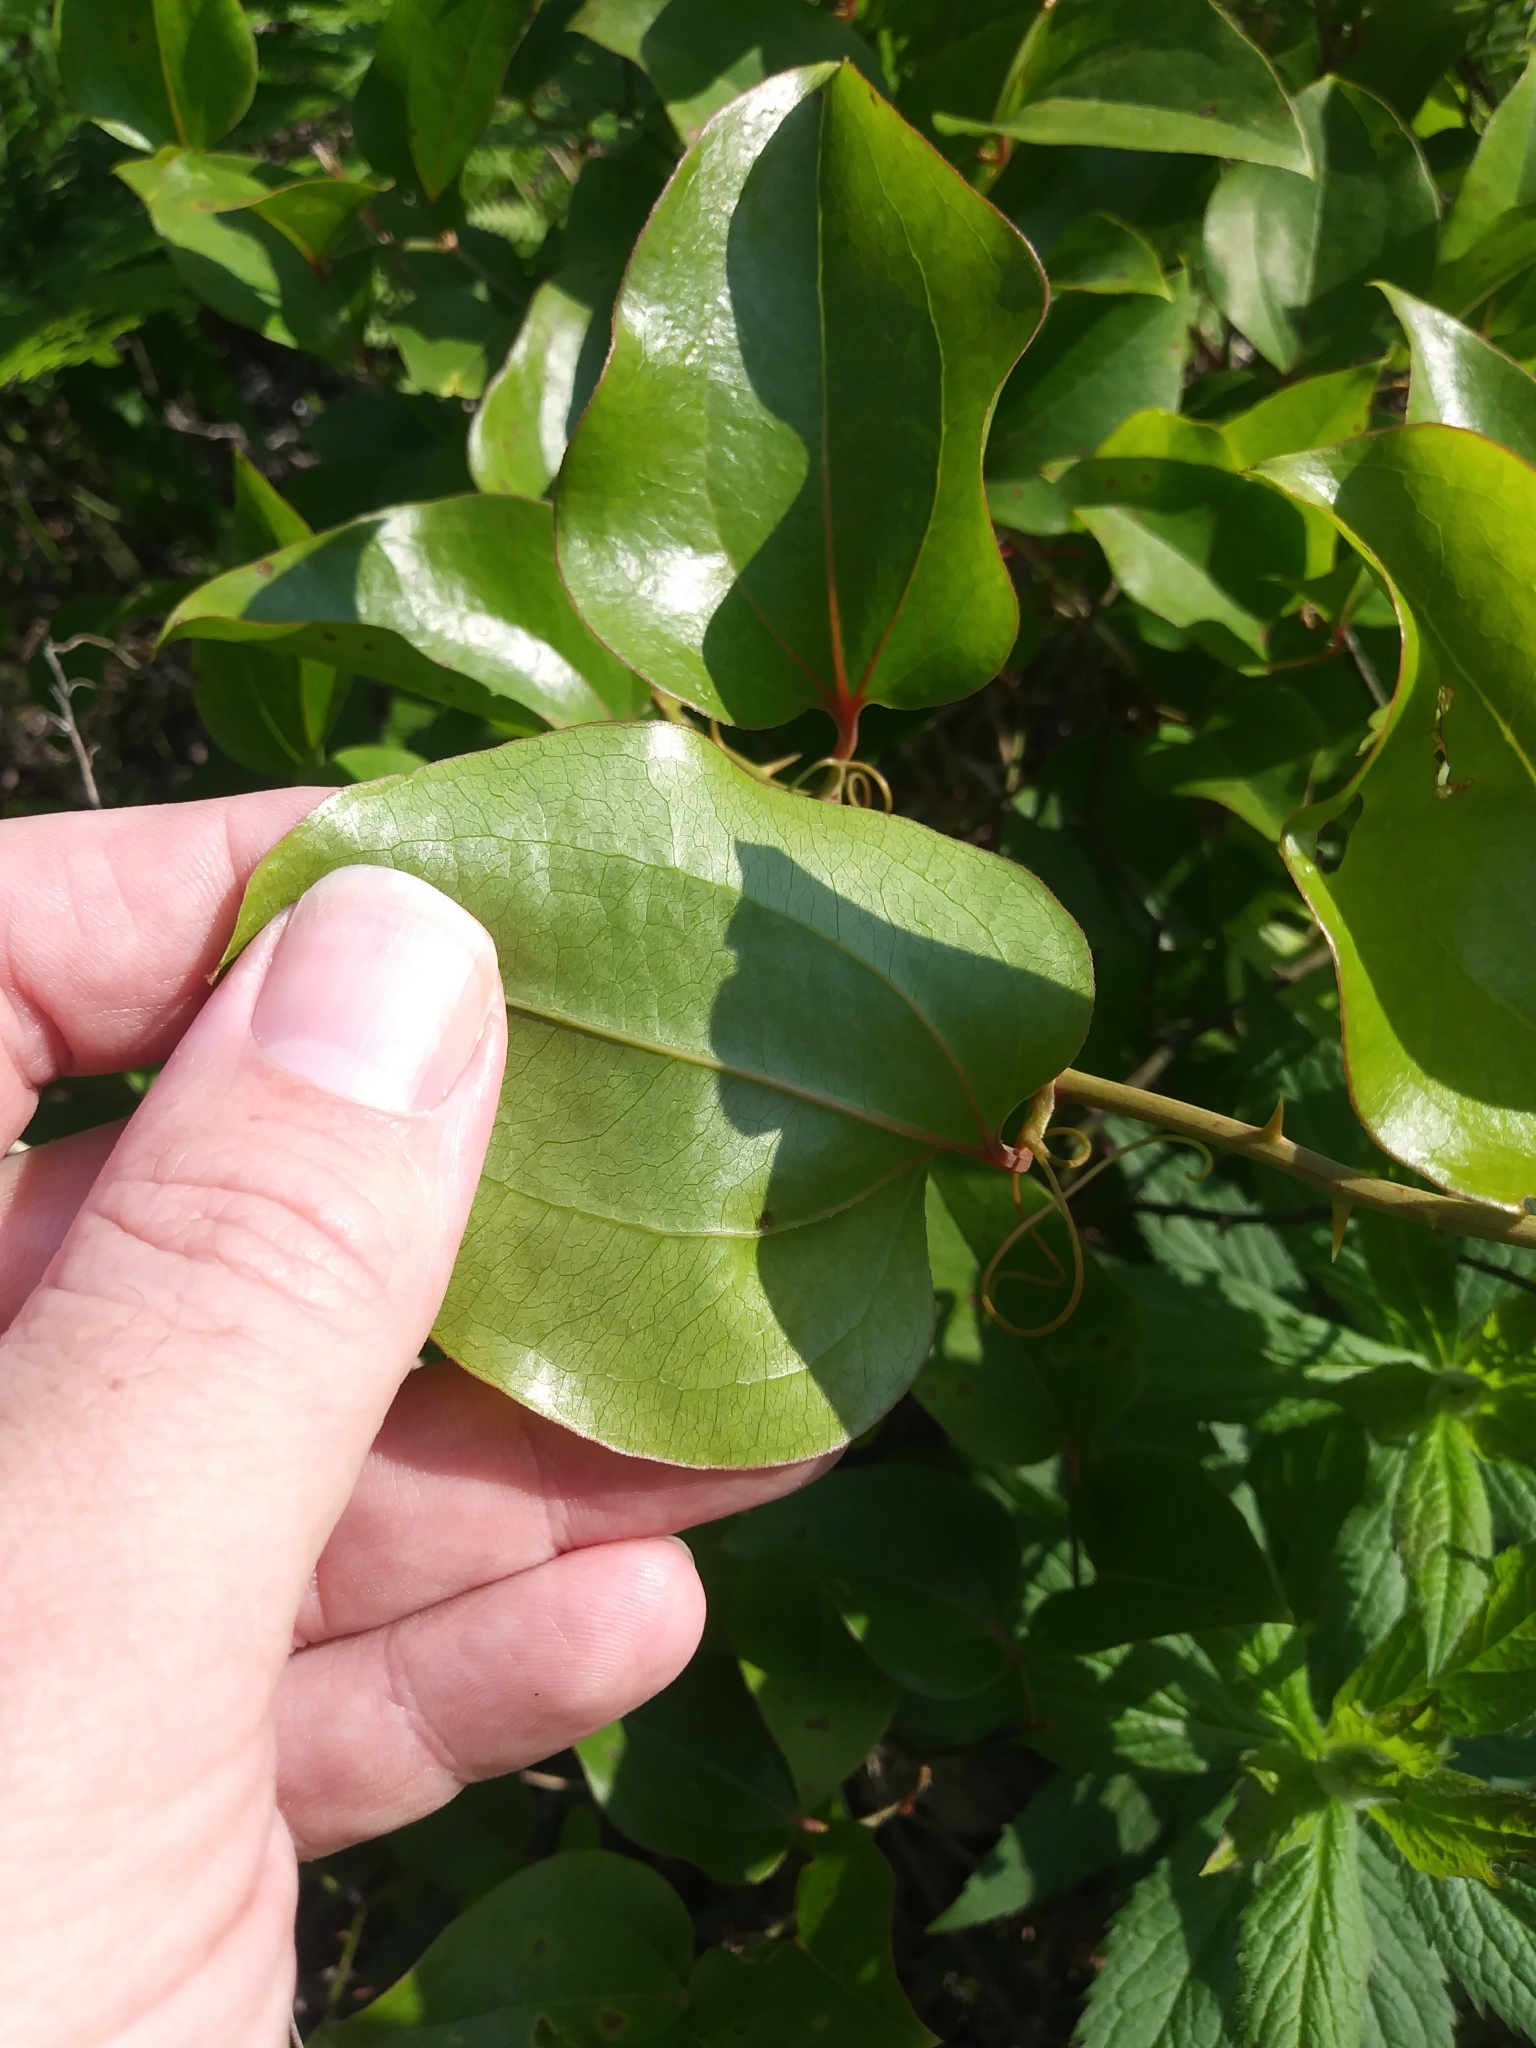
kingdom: Plantae
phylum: Tracheophyta
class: Liliopsida
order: Liliales
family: Smilacaceae
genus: Smilax
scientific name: Smilax rotundifolia
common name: Bullbriar
